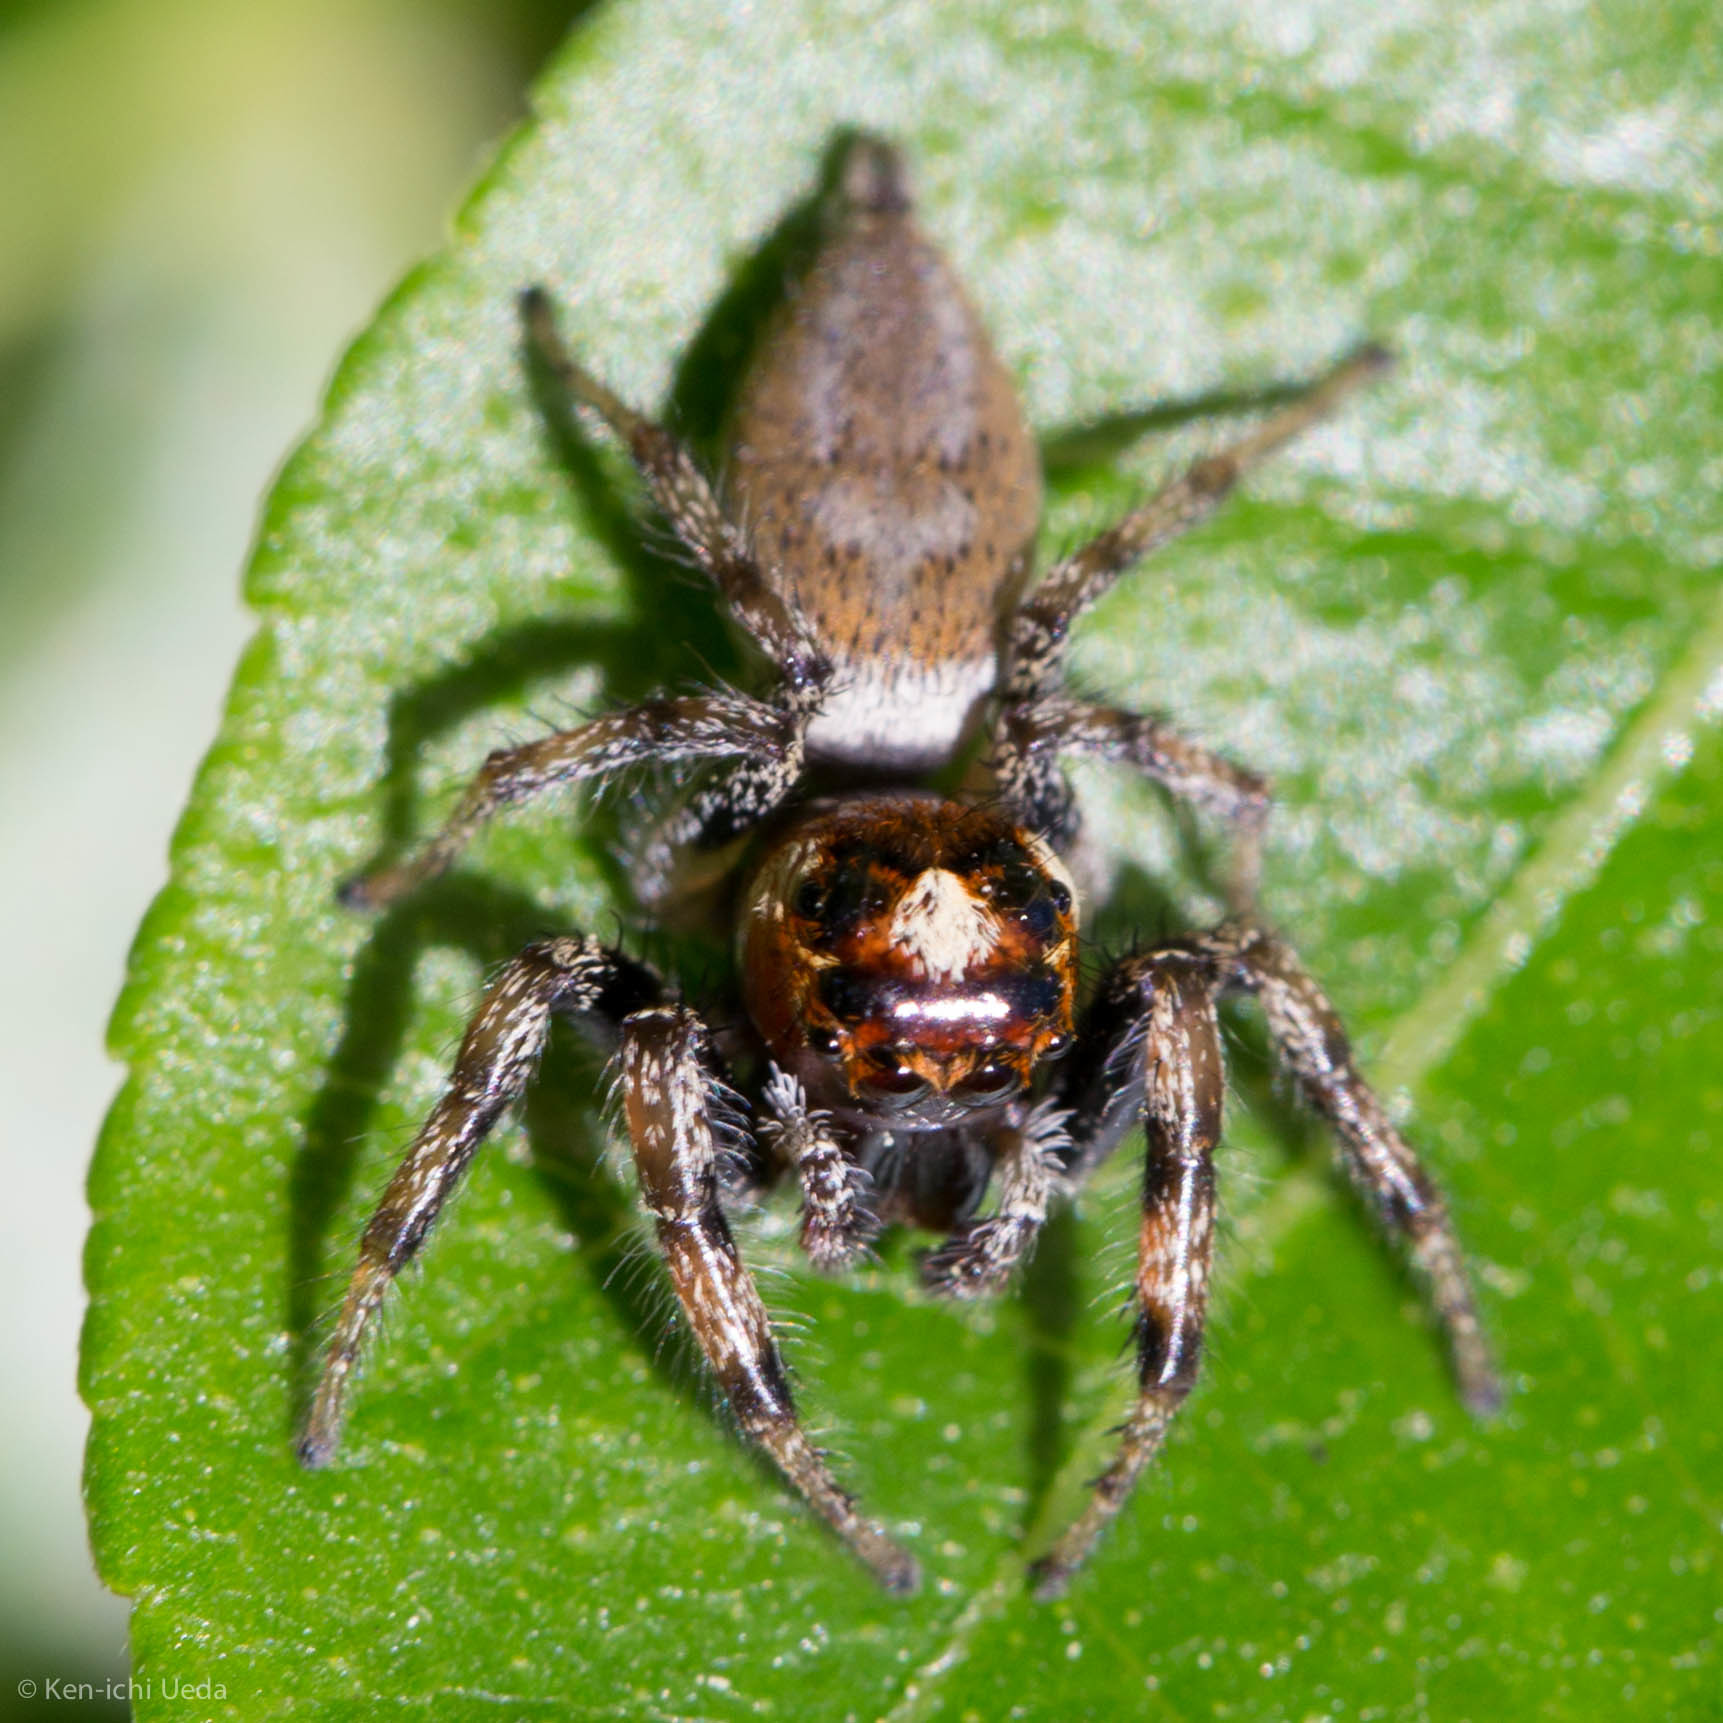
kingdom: Animalia
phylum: Arthropoda
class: Arachnida
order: Araneae
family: Salticidae
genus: Colonus
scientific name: Colonus hesperus
